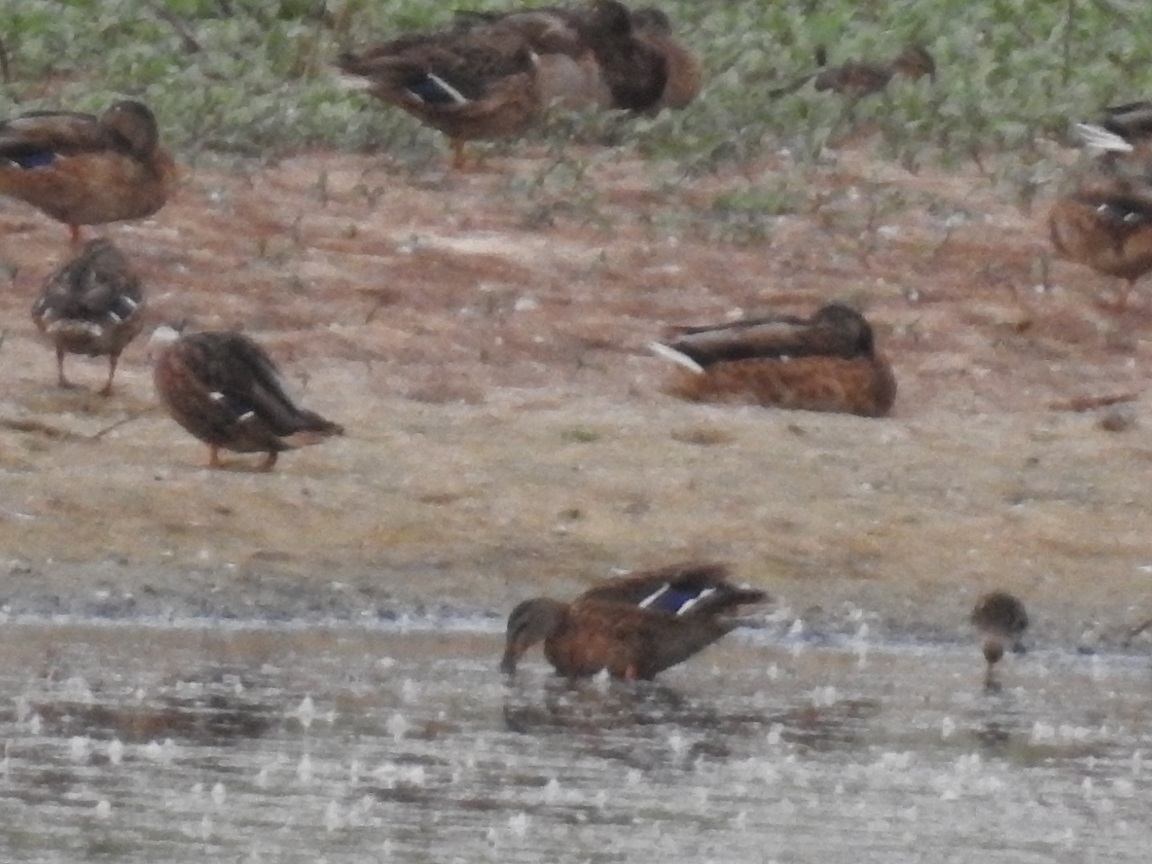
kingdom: Animalia
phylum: Chordata
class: Aves
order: Anseriformes
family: Anatidae
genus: Anas
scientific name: Anas platyrhynchos
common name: Mallard
